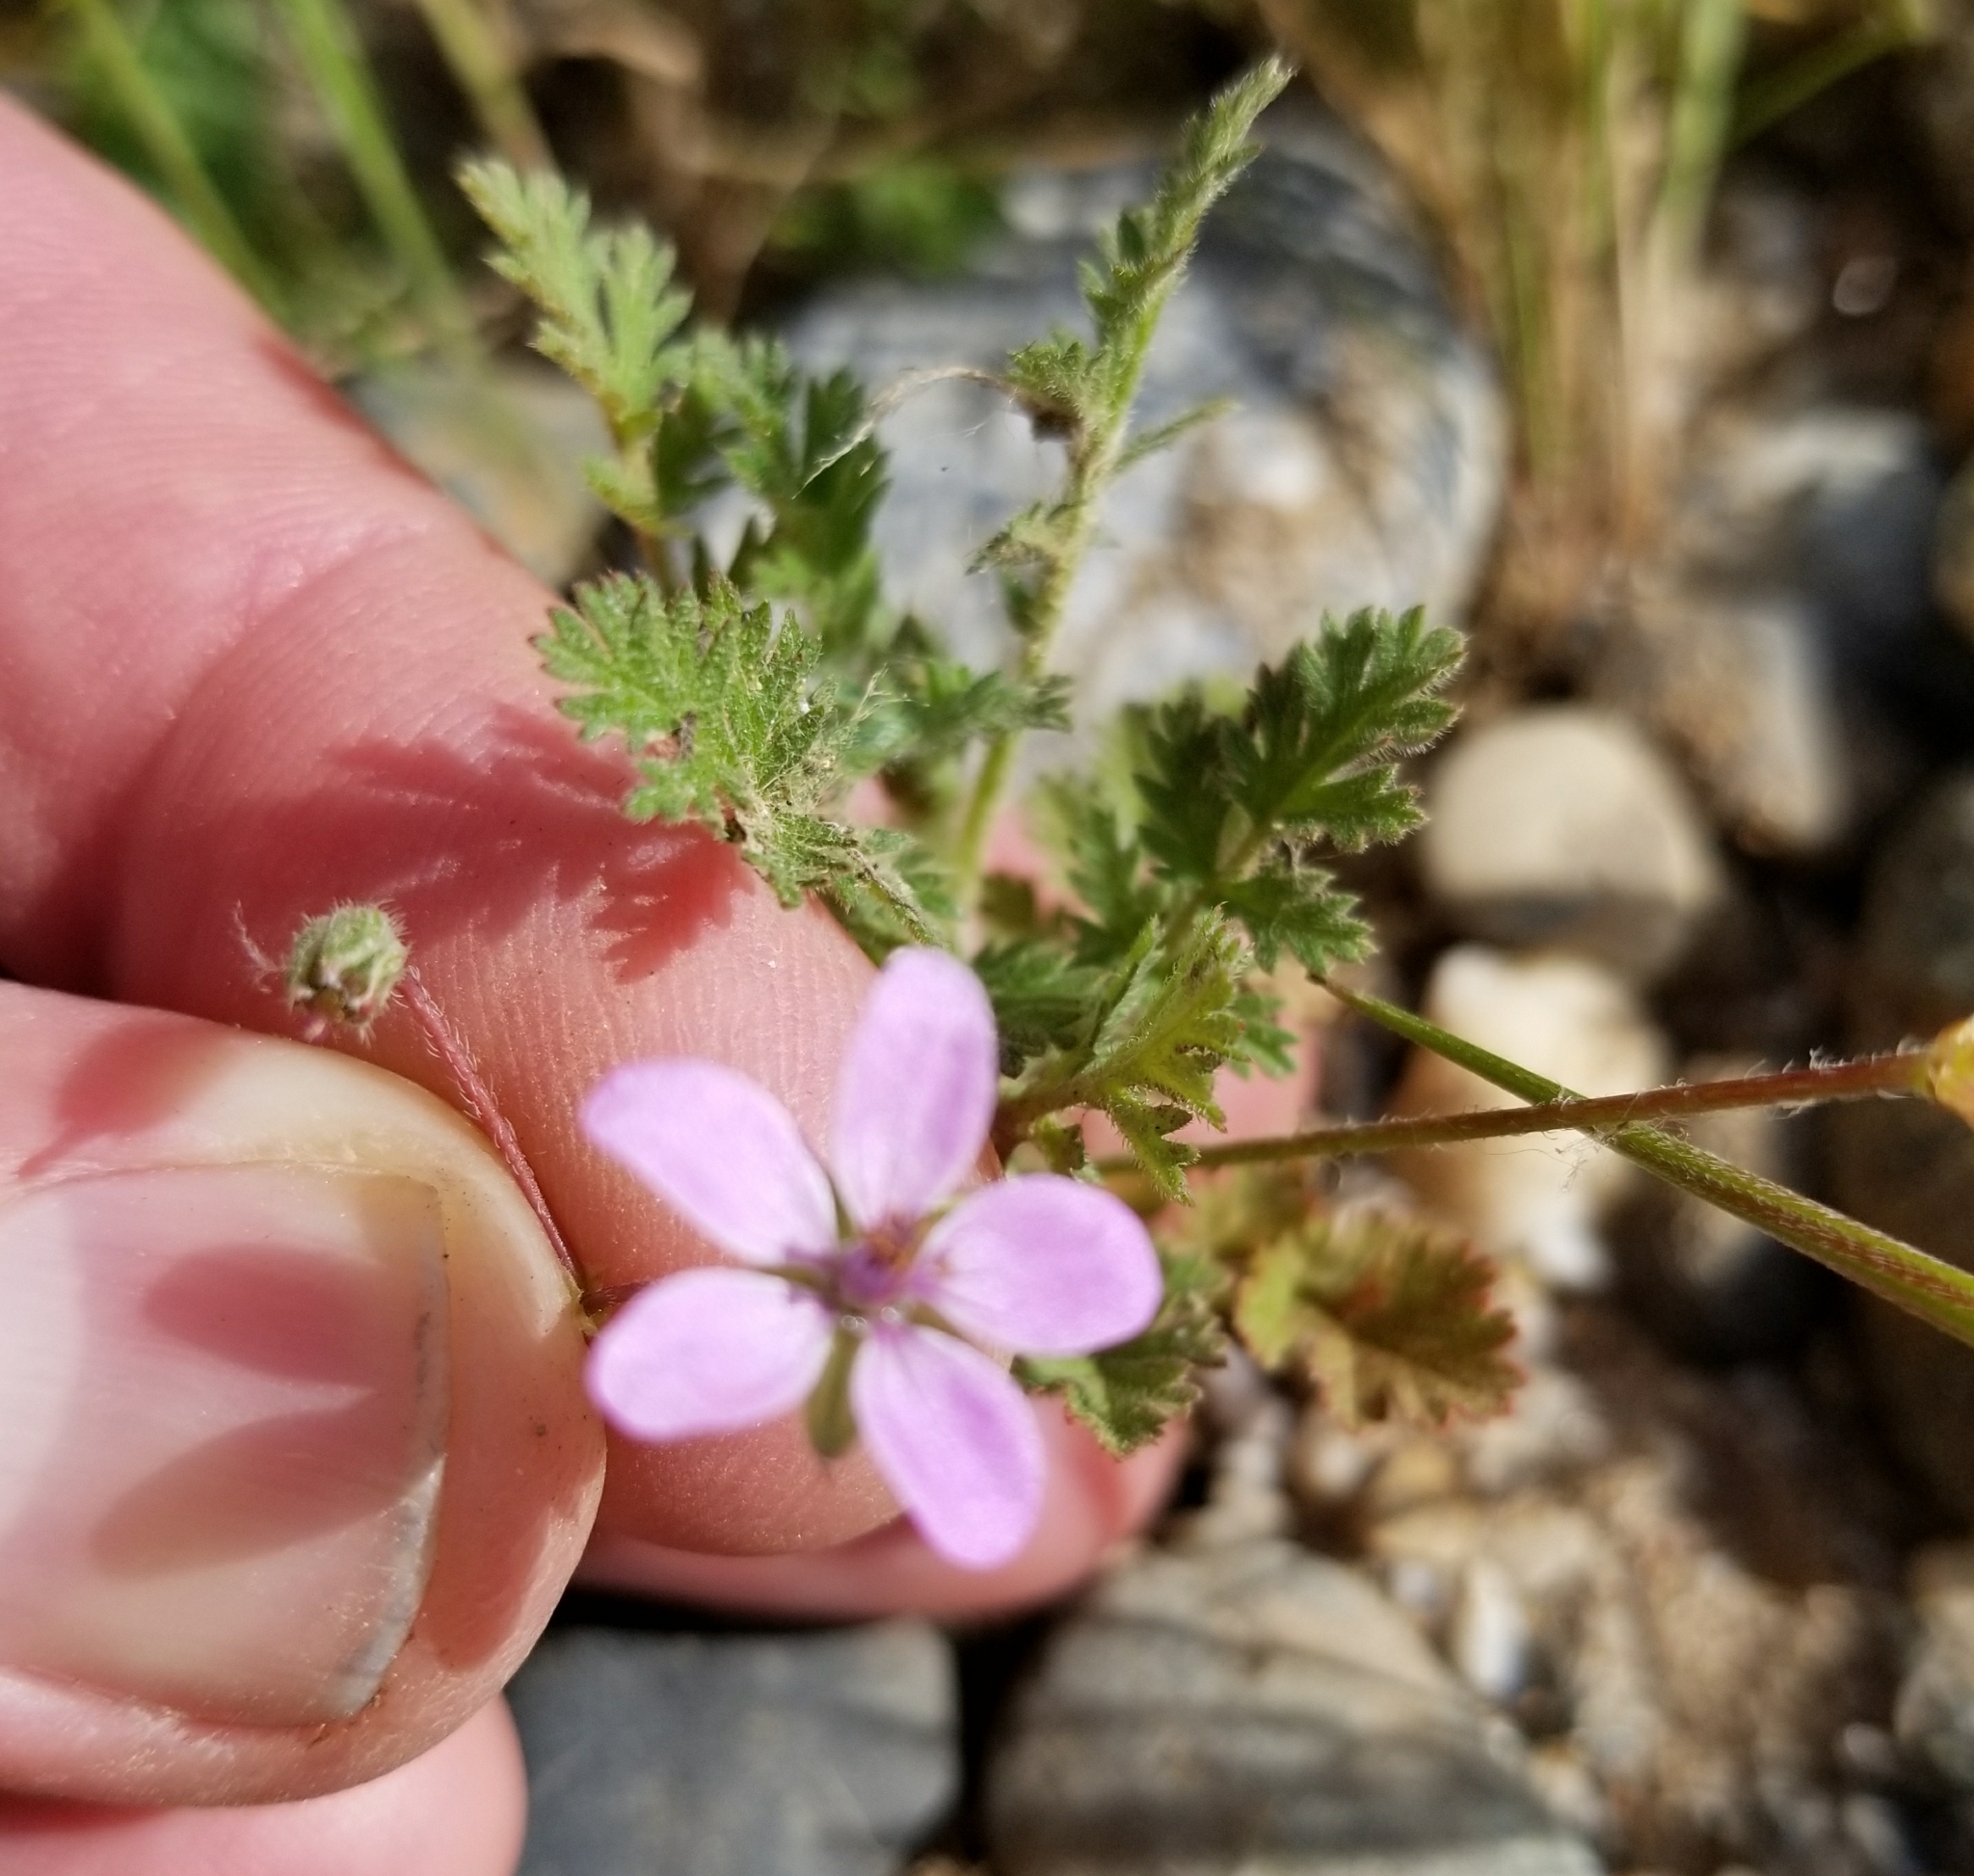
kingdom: Plantae
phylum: Tracheophyta
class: Magnoliopsida
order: Geraniales
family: Geraniaceae
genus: Erodium
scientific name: Erodium cicutarium
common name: Common stork's-bill
